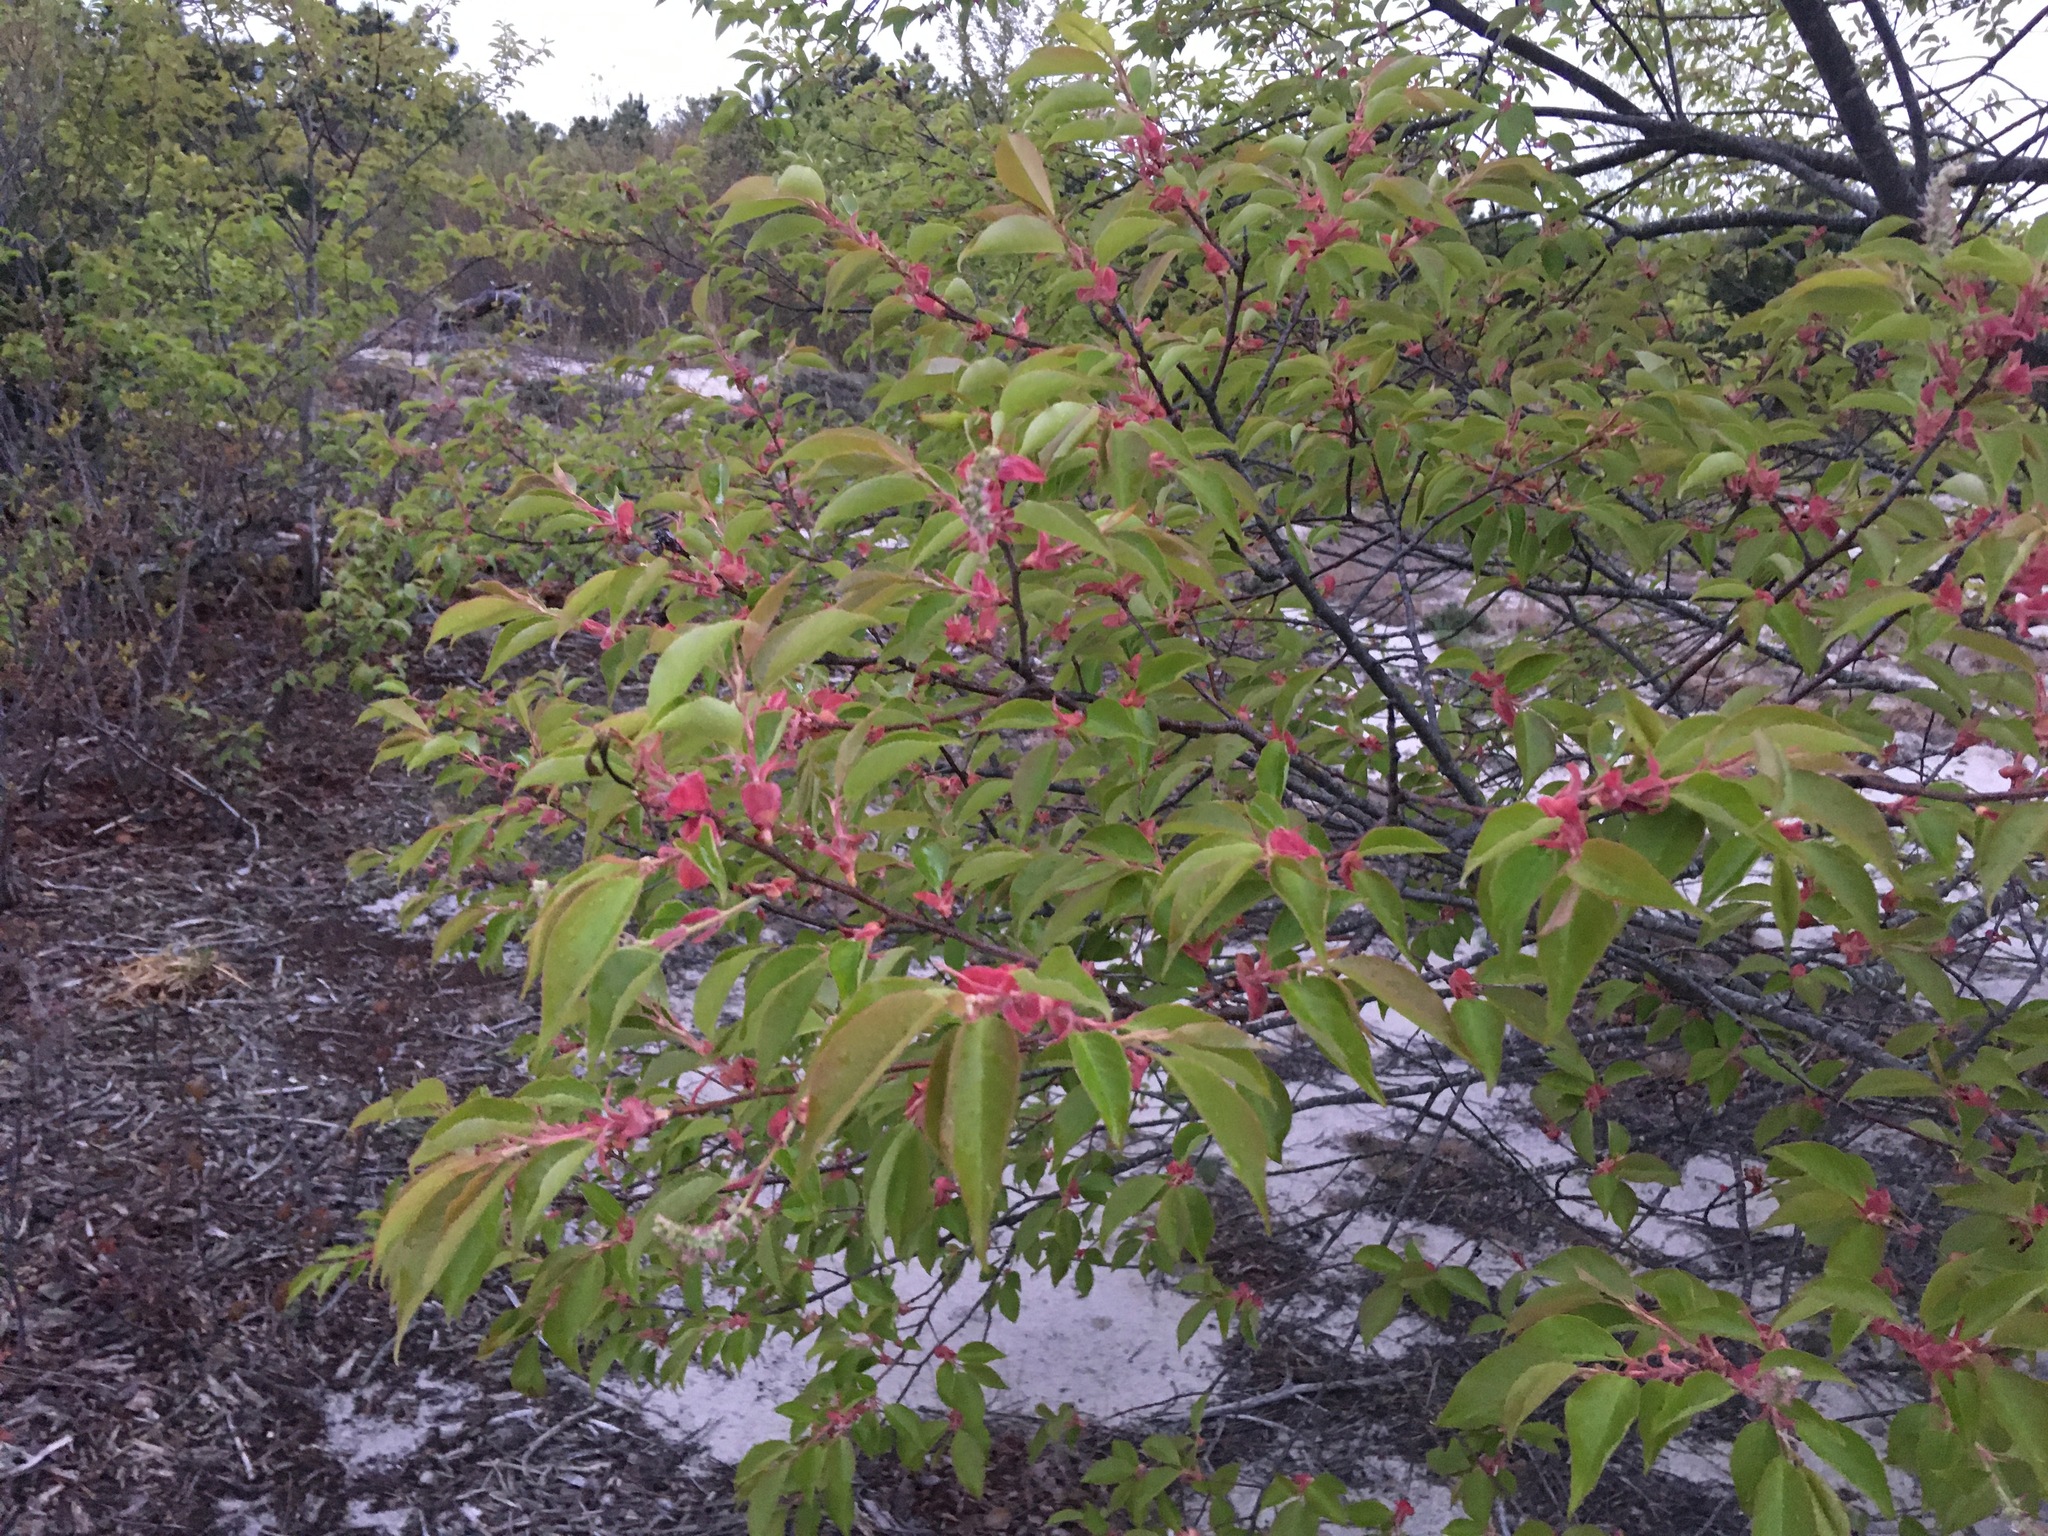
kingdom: Plantae
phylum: Tracheophyta
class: Magnoliopsida
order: Rosales
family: Rosaceae
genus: Prunus
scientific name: Prunus serotina
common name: Black cherry
